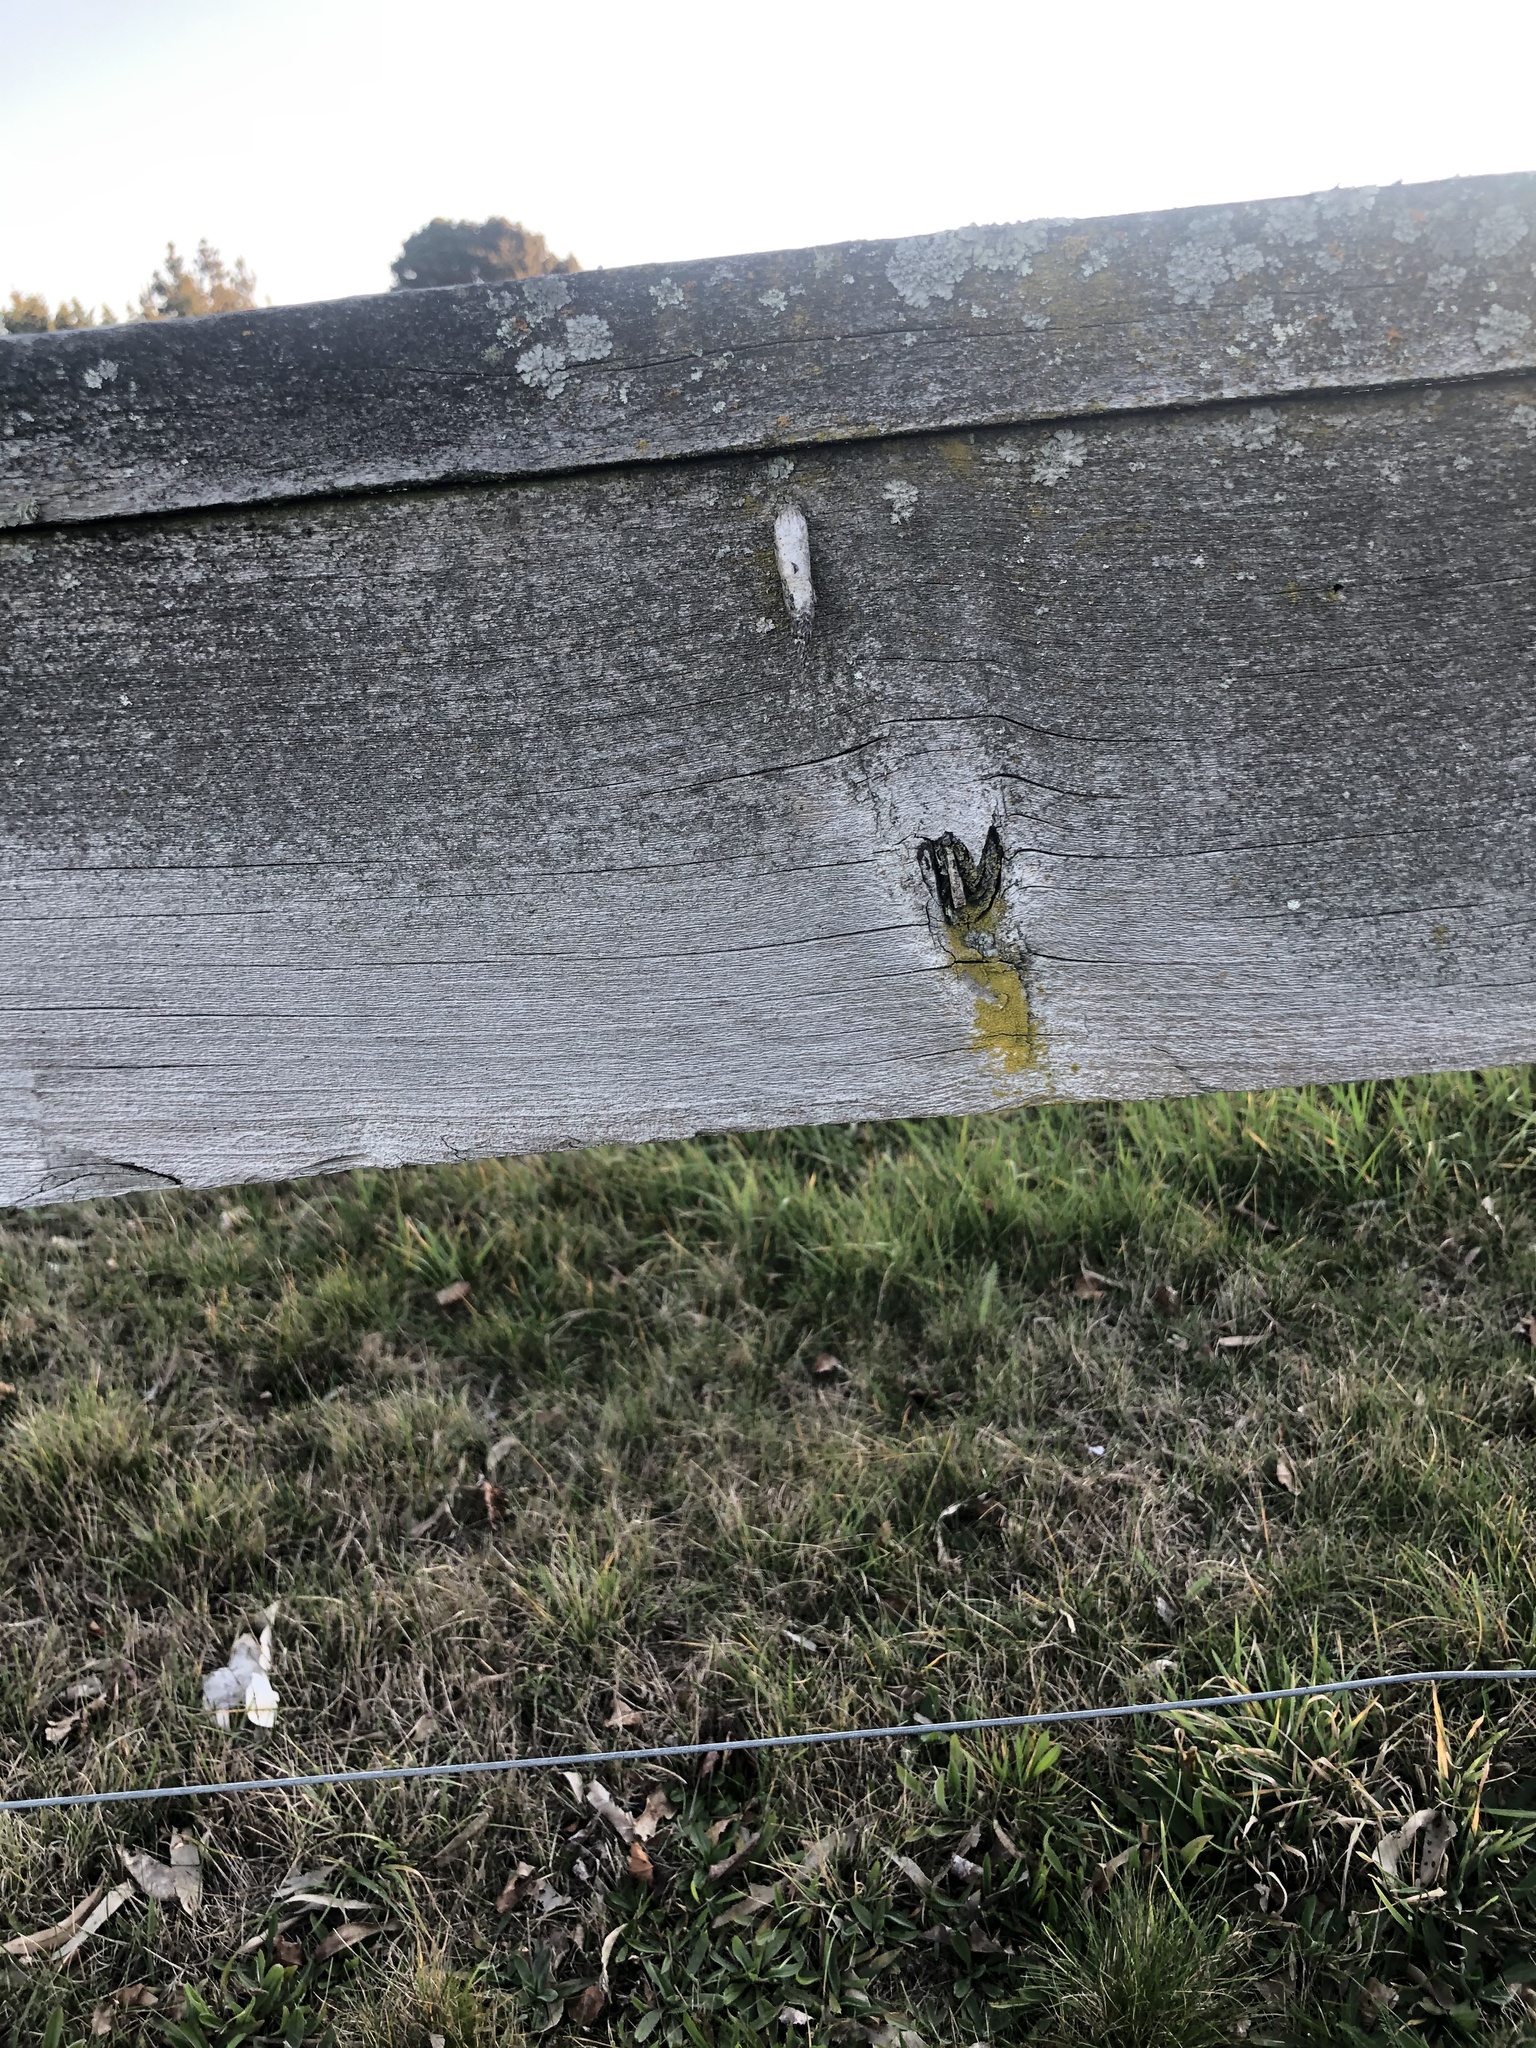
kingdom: Animalia
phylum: Arthropoda
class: Insecta
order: Lepidoptera
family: Psychidae
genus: Liothula
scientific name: Liothula omnivora
